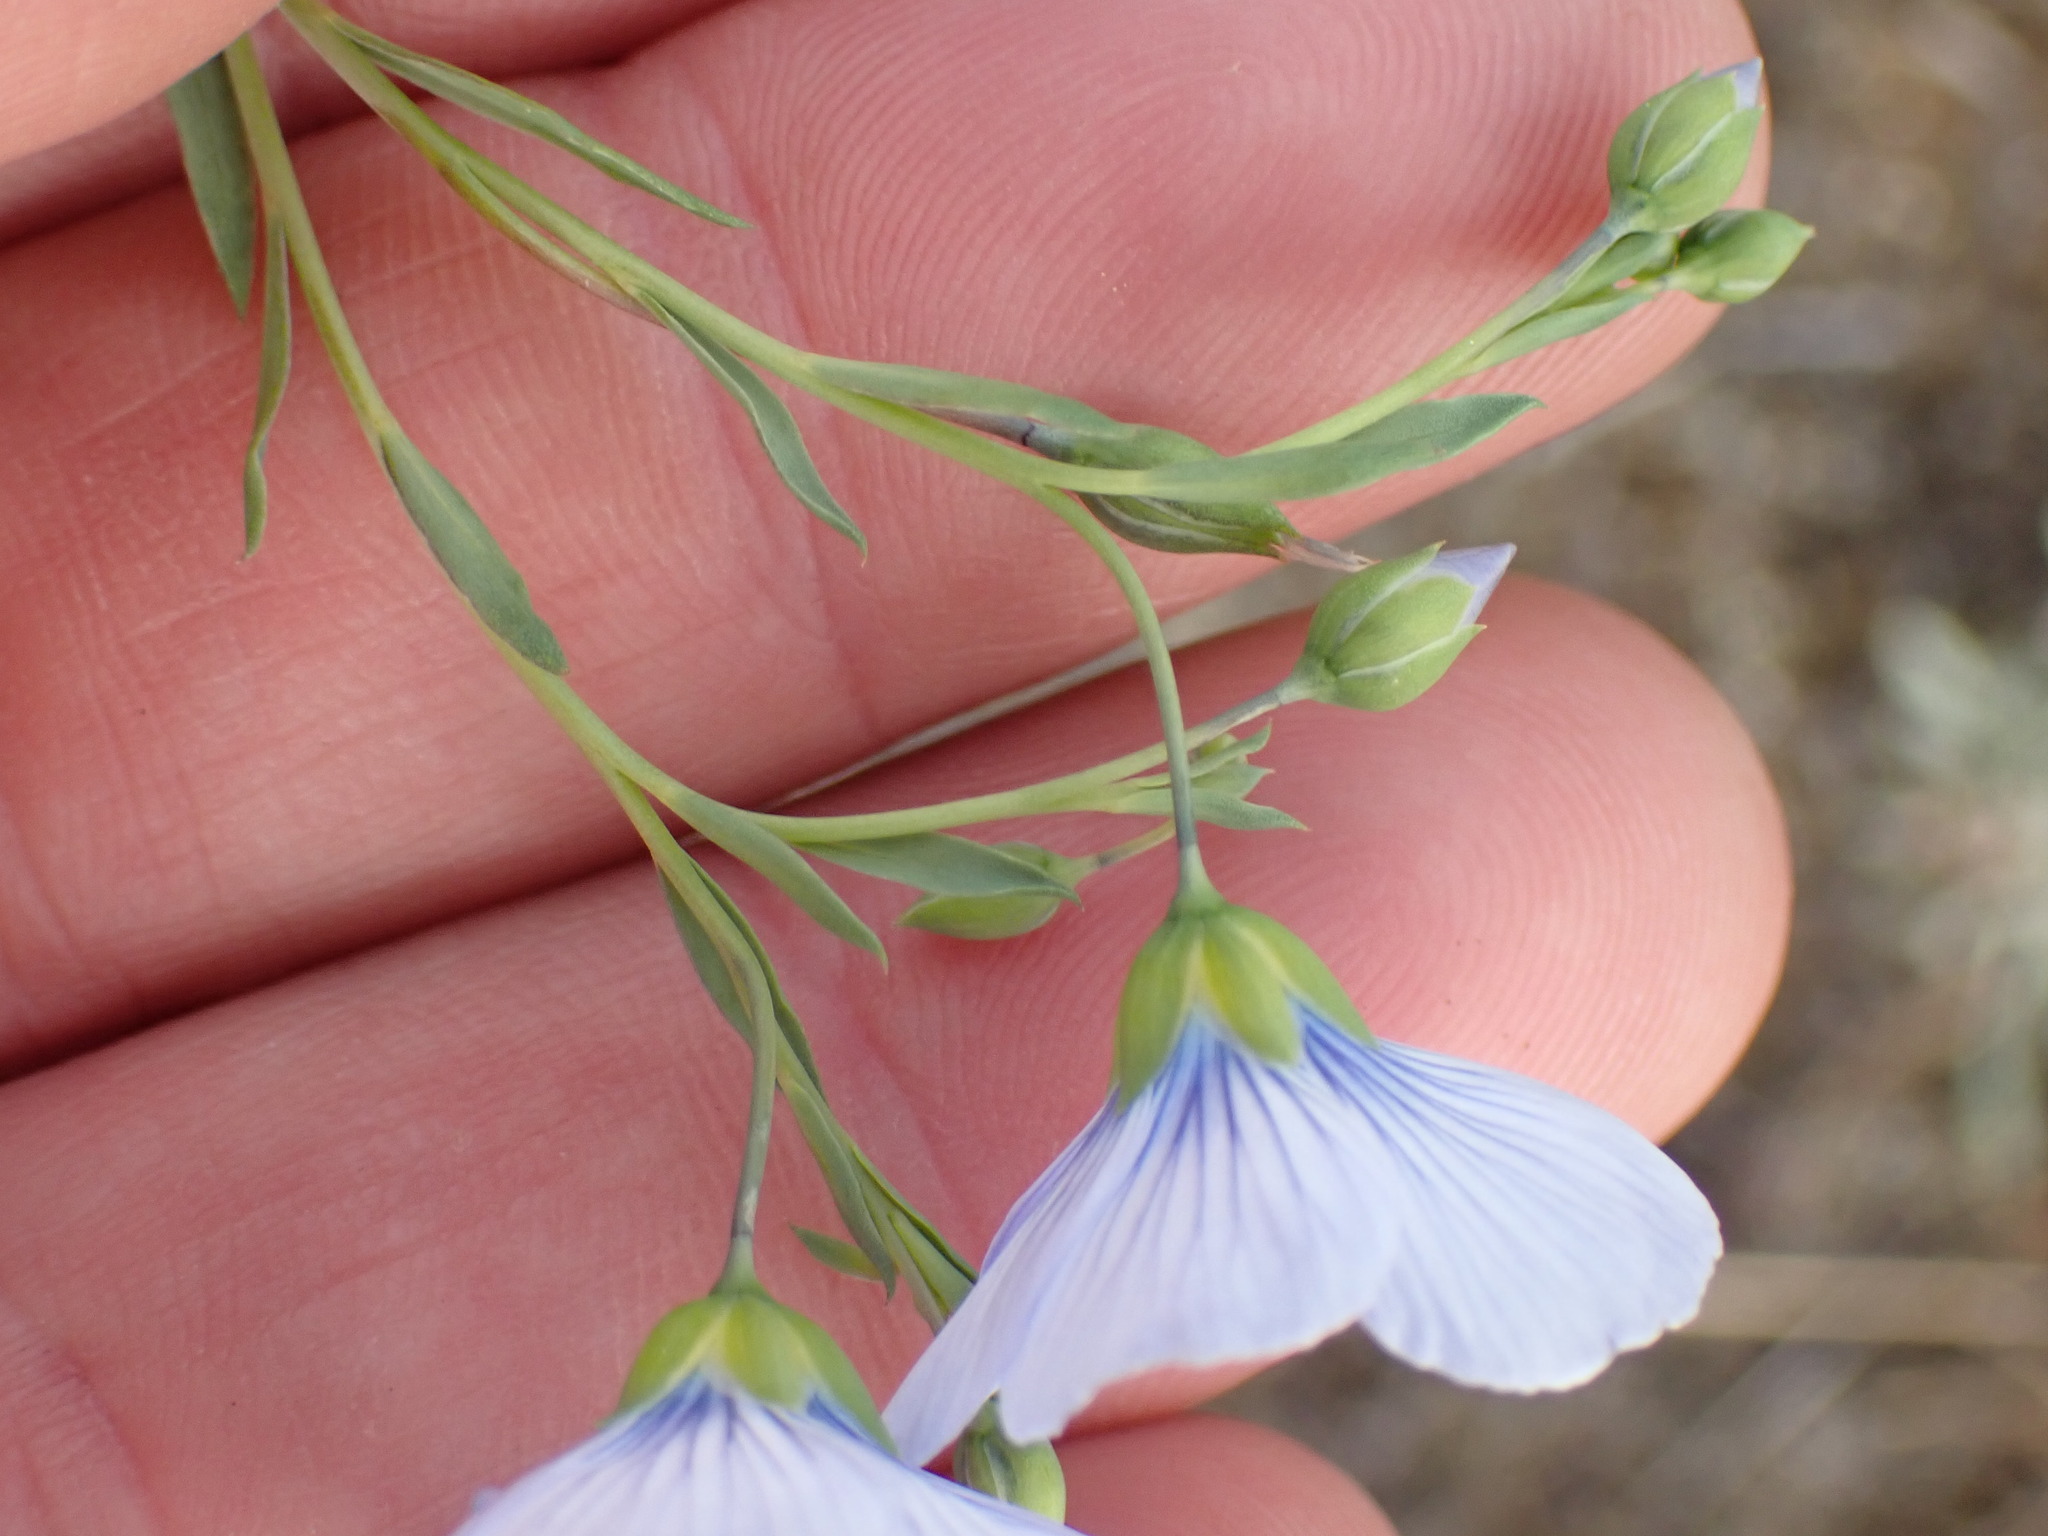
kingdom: Plantae
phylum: Tracheophyta
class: Magnoliopsida
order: Malpighiales
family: Linaceae
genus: Linum
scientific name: Linum lewisii
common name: Prairie flax
